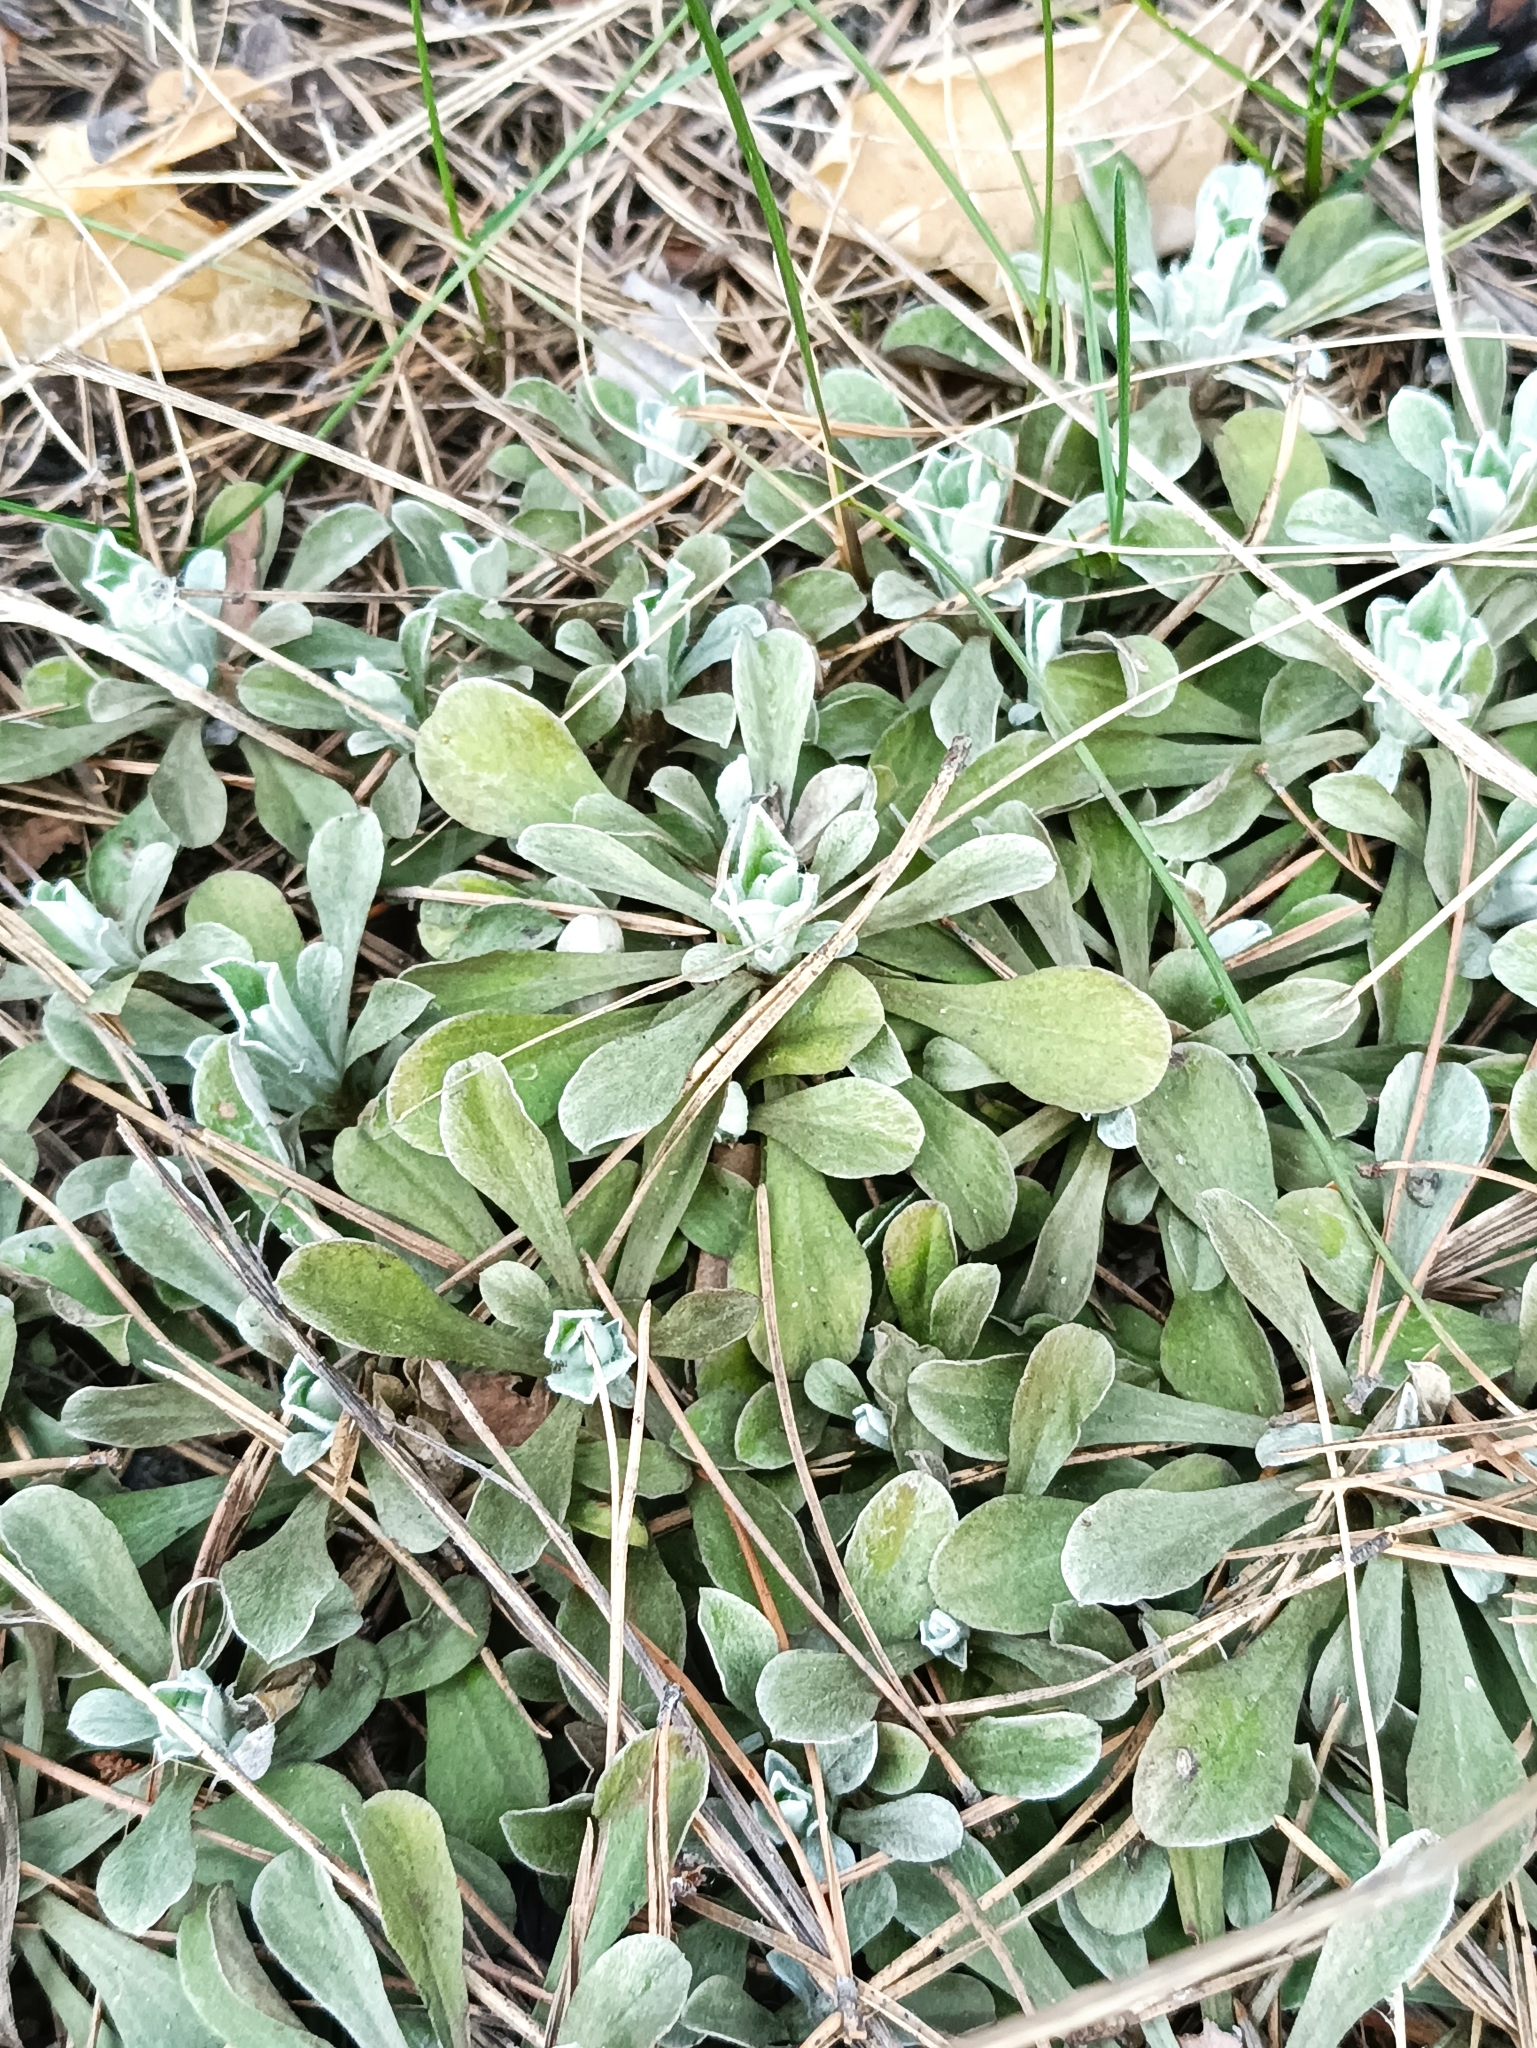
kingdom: Plantae
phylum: Tracheophyta
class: Magnoliopsida
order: Asterales
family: Asteraceae
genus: Antennaria
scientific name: Antennaria dioica
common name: Mountain everlasting
